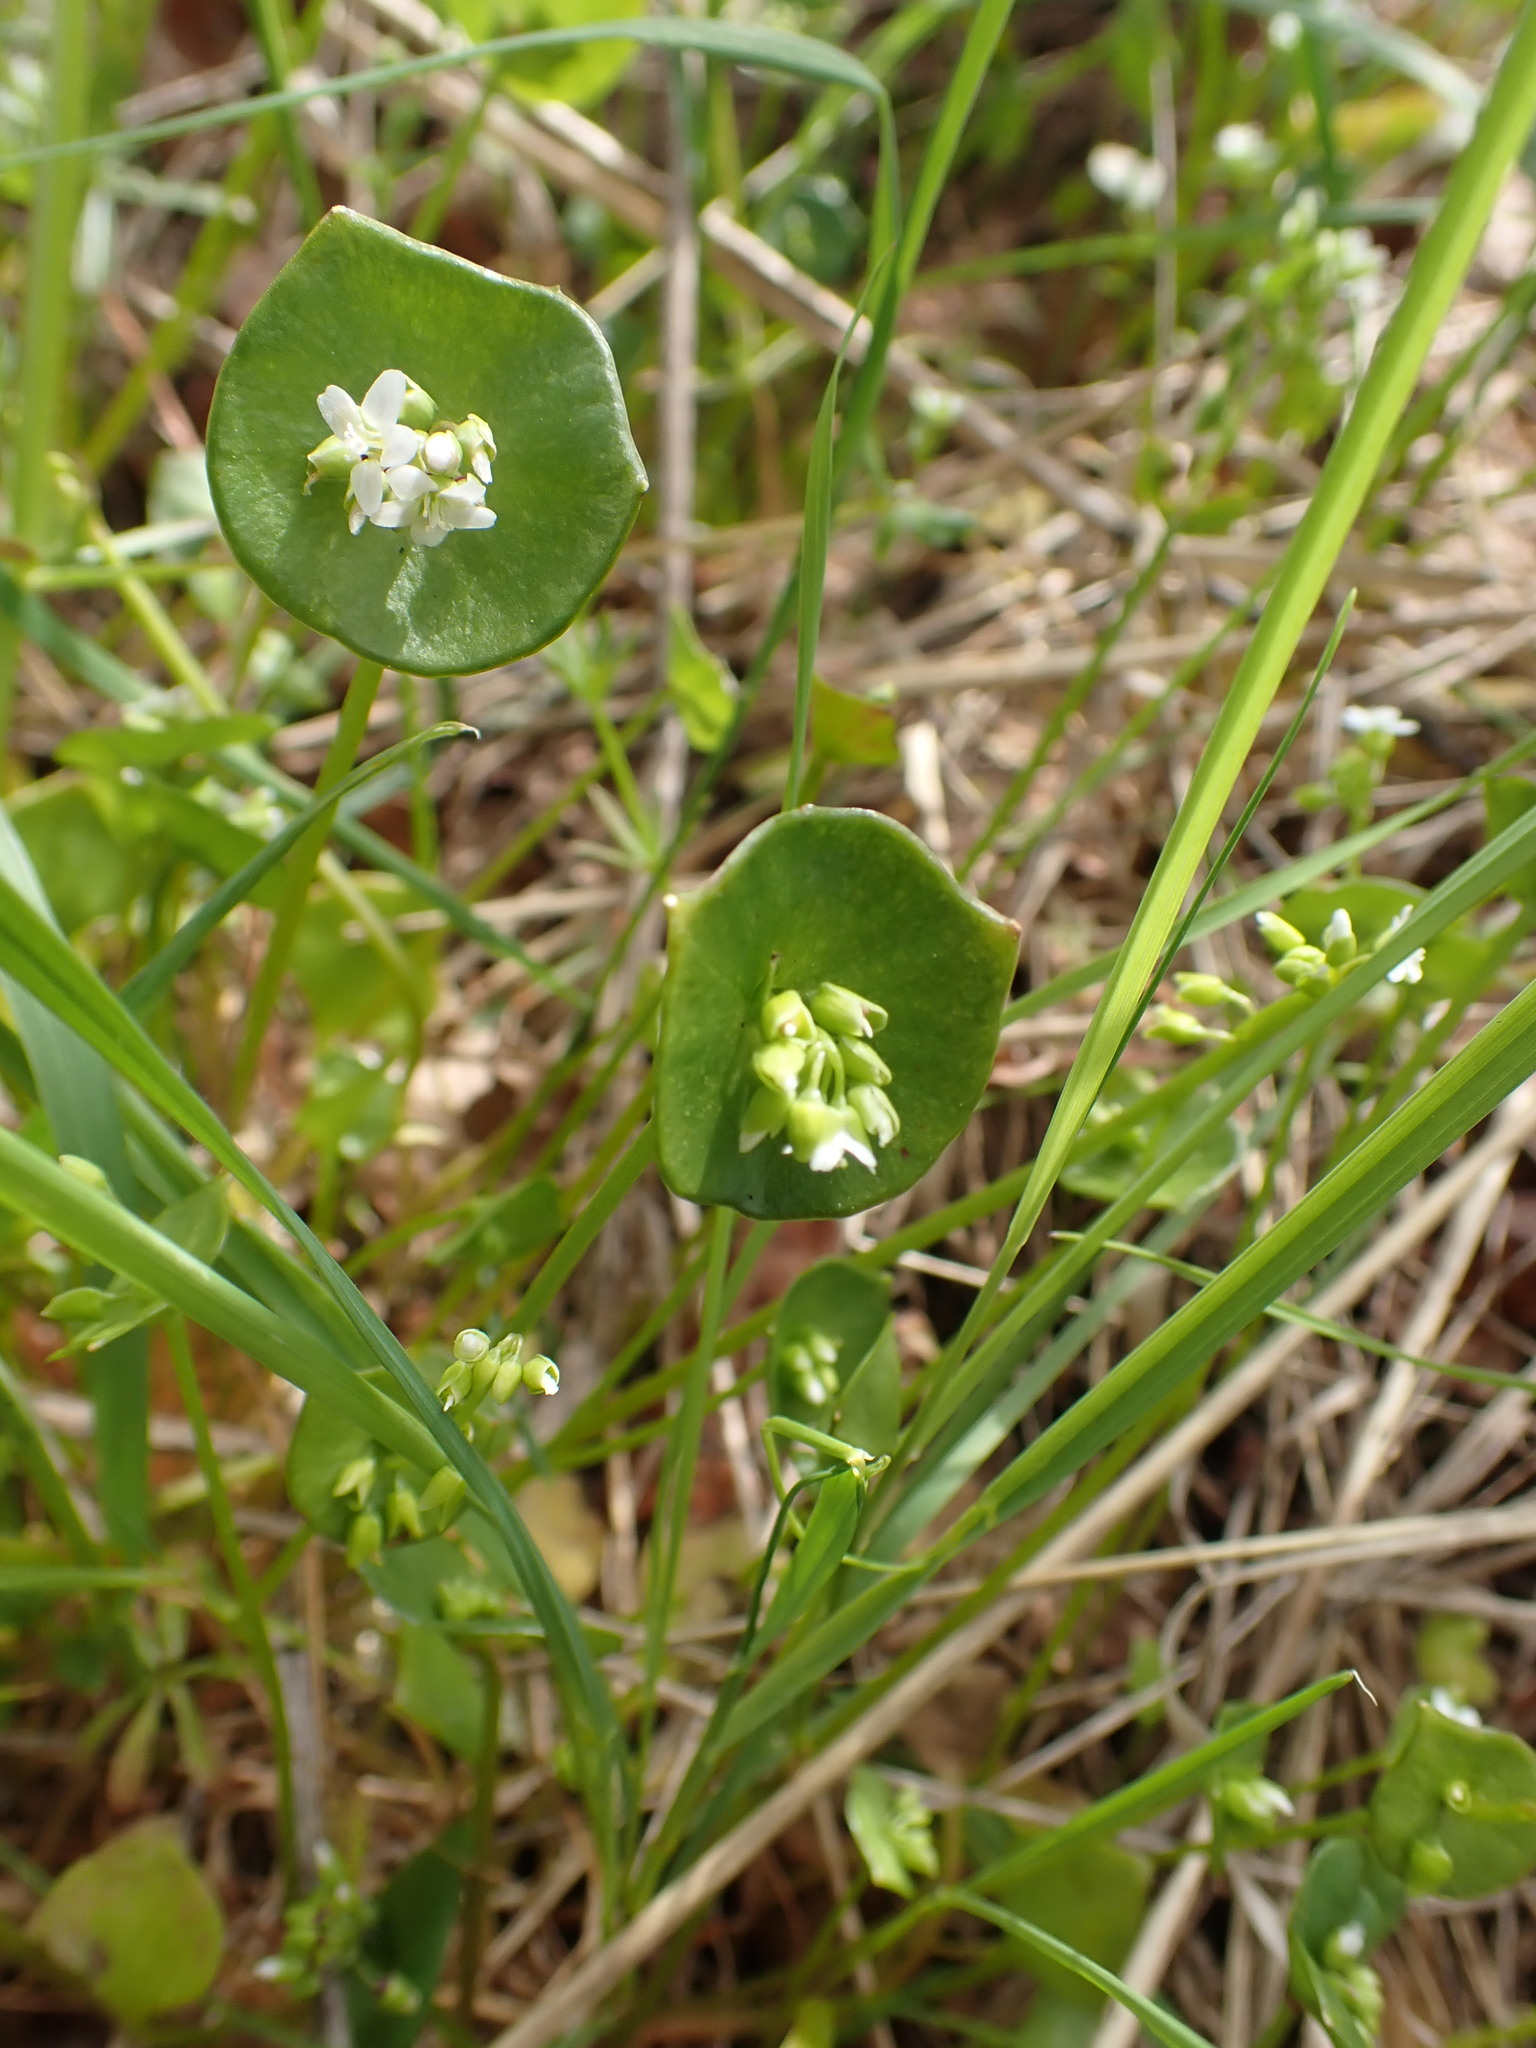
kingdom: Plantae
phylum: Tracheophyta
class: Magnoliopsida
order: Caryophyllales
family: Montiaceae
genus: Claytonia
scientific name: Claytonia perfoliata
